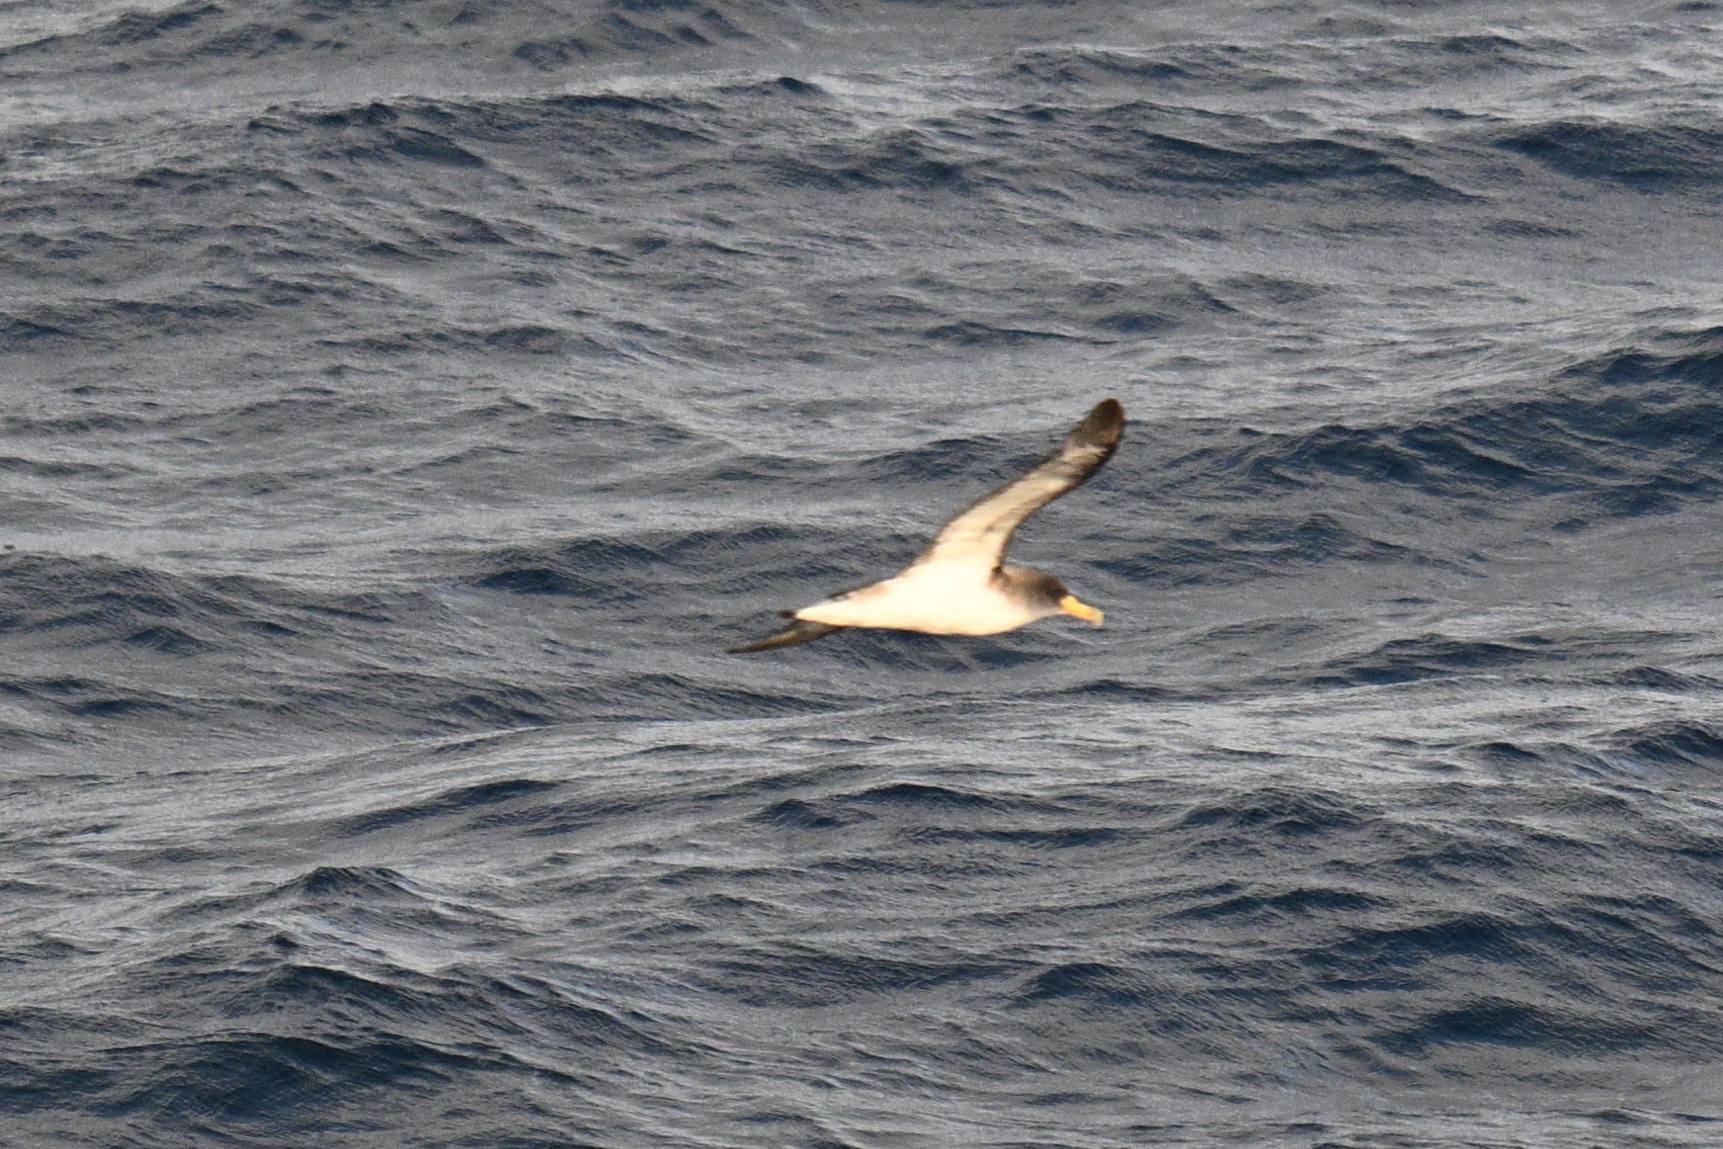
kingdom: Animalia
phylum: Chordata
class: Aves
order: Procellariiformes
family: Procellariidae
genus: Calonectris
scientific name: Calonectris diomedea
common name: Cory's shearwater
